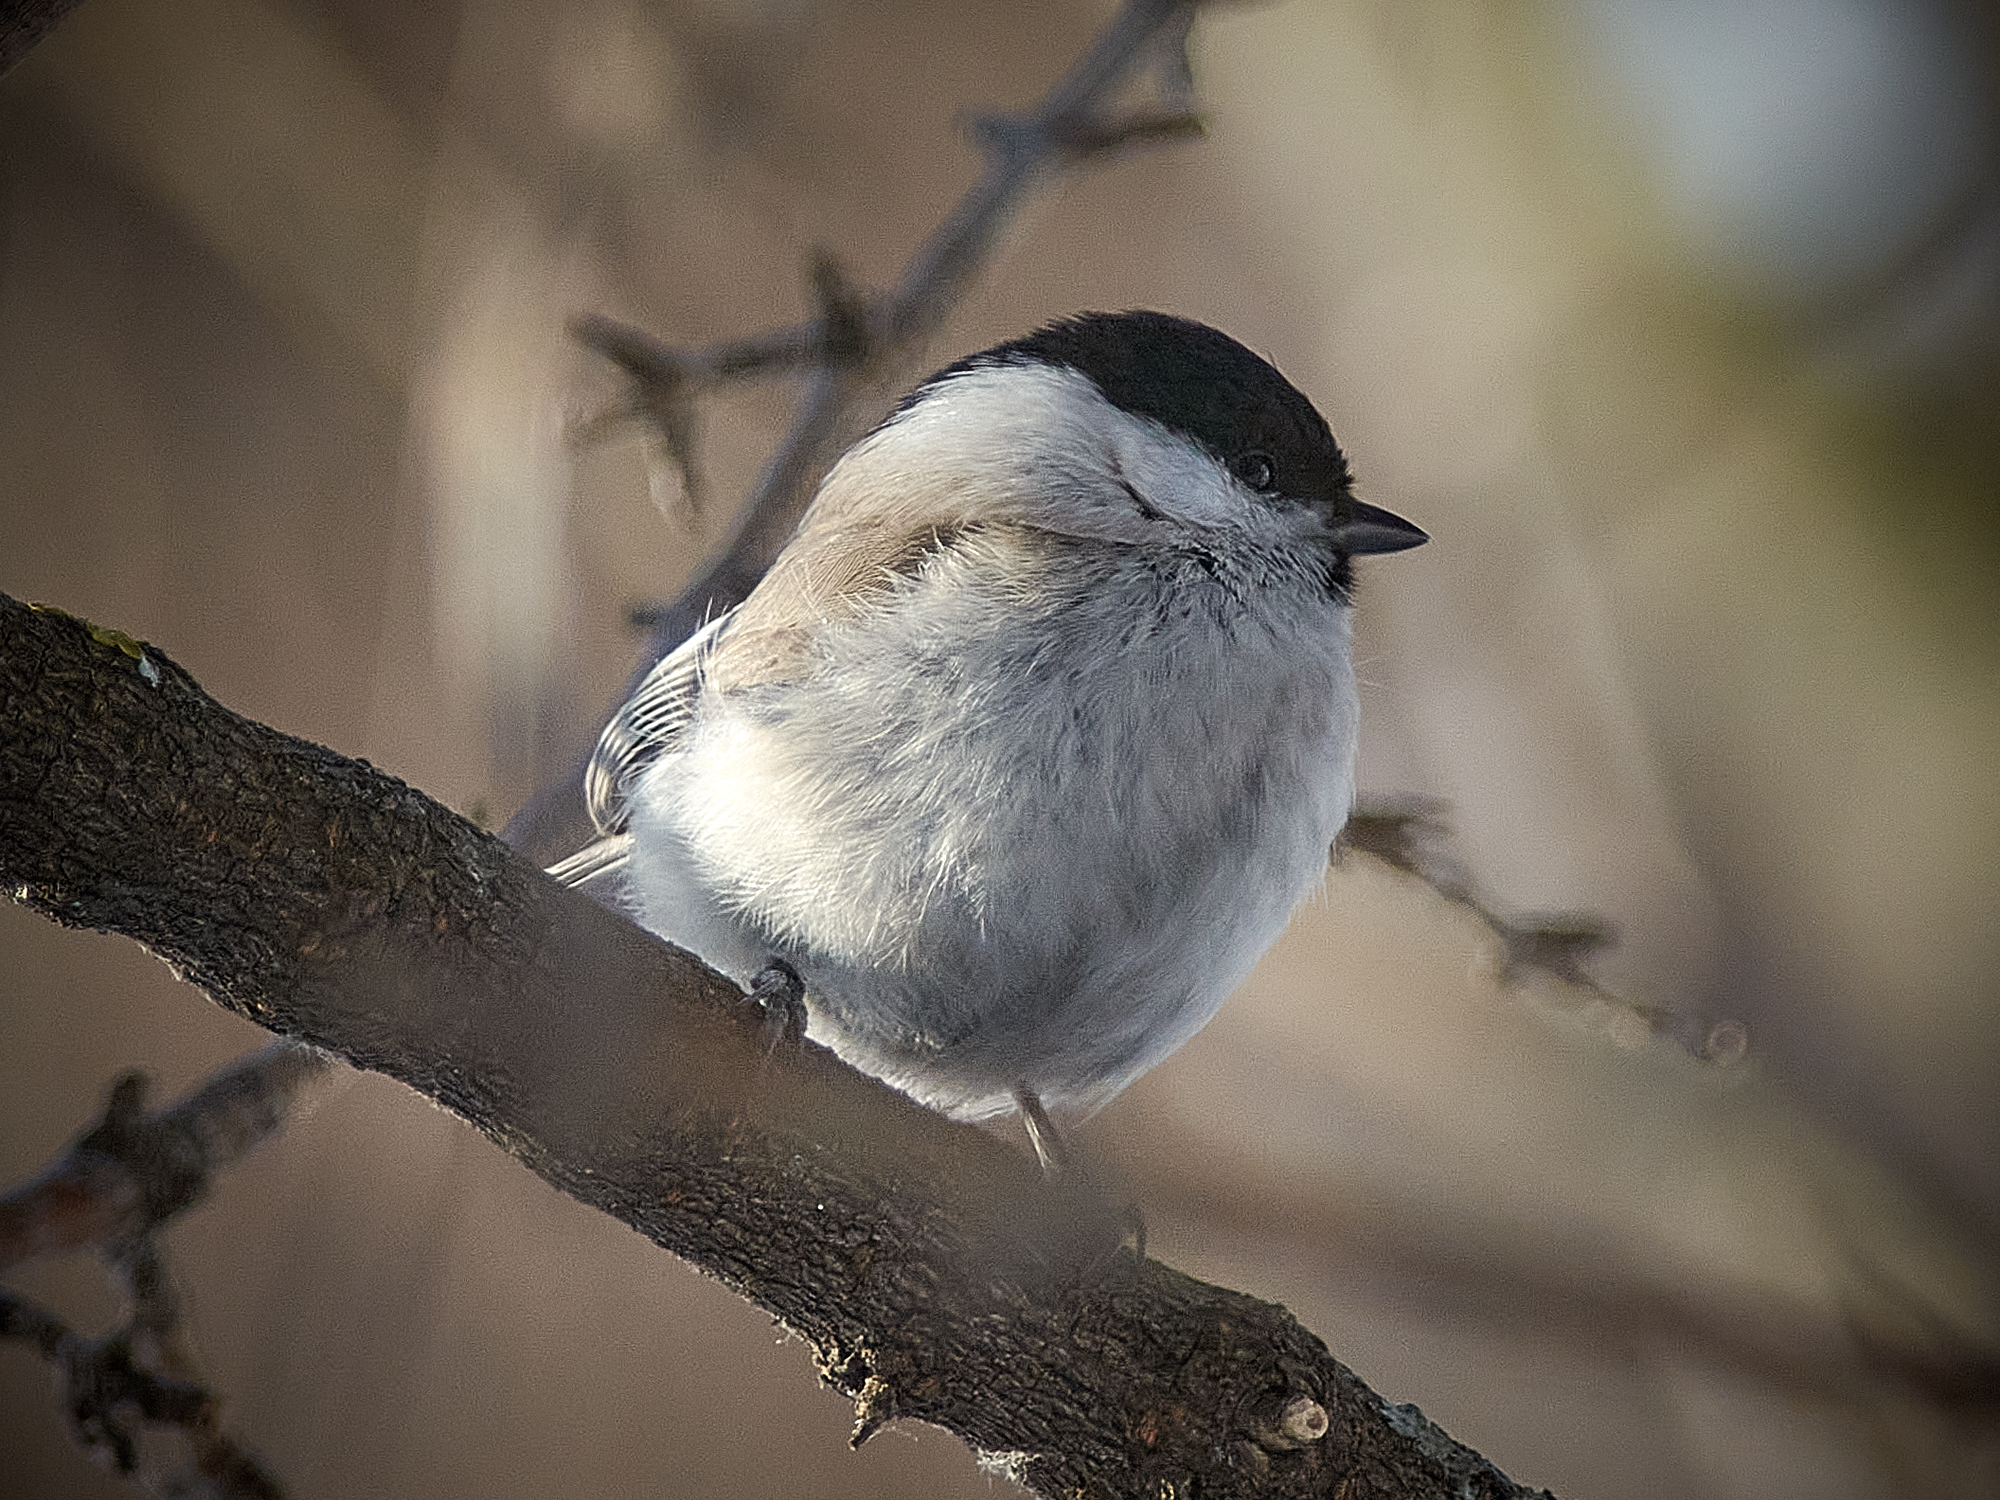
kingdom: Animalia
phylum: Chordata
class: Aves
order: Passeriformes
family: Paridae
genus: Poecile
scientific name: Poecile montanus
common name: Willow tit
